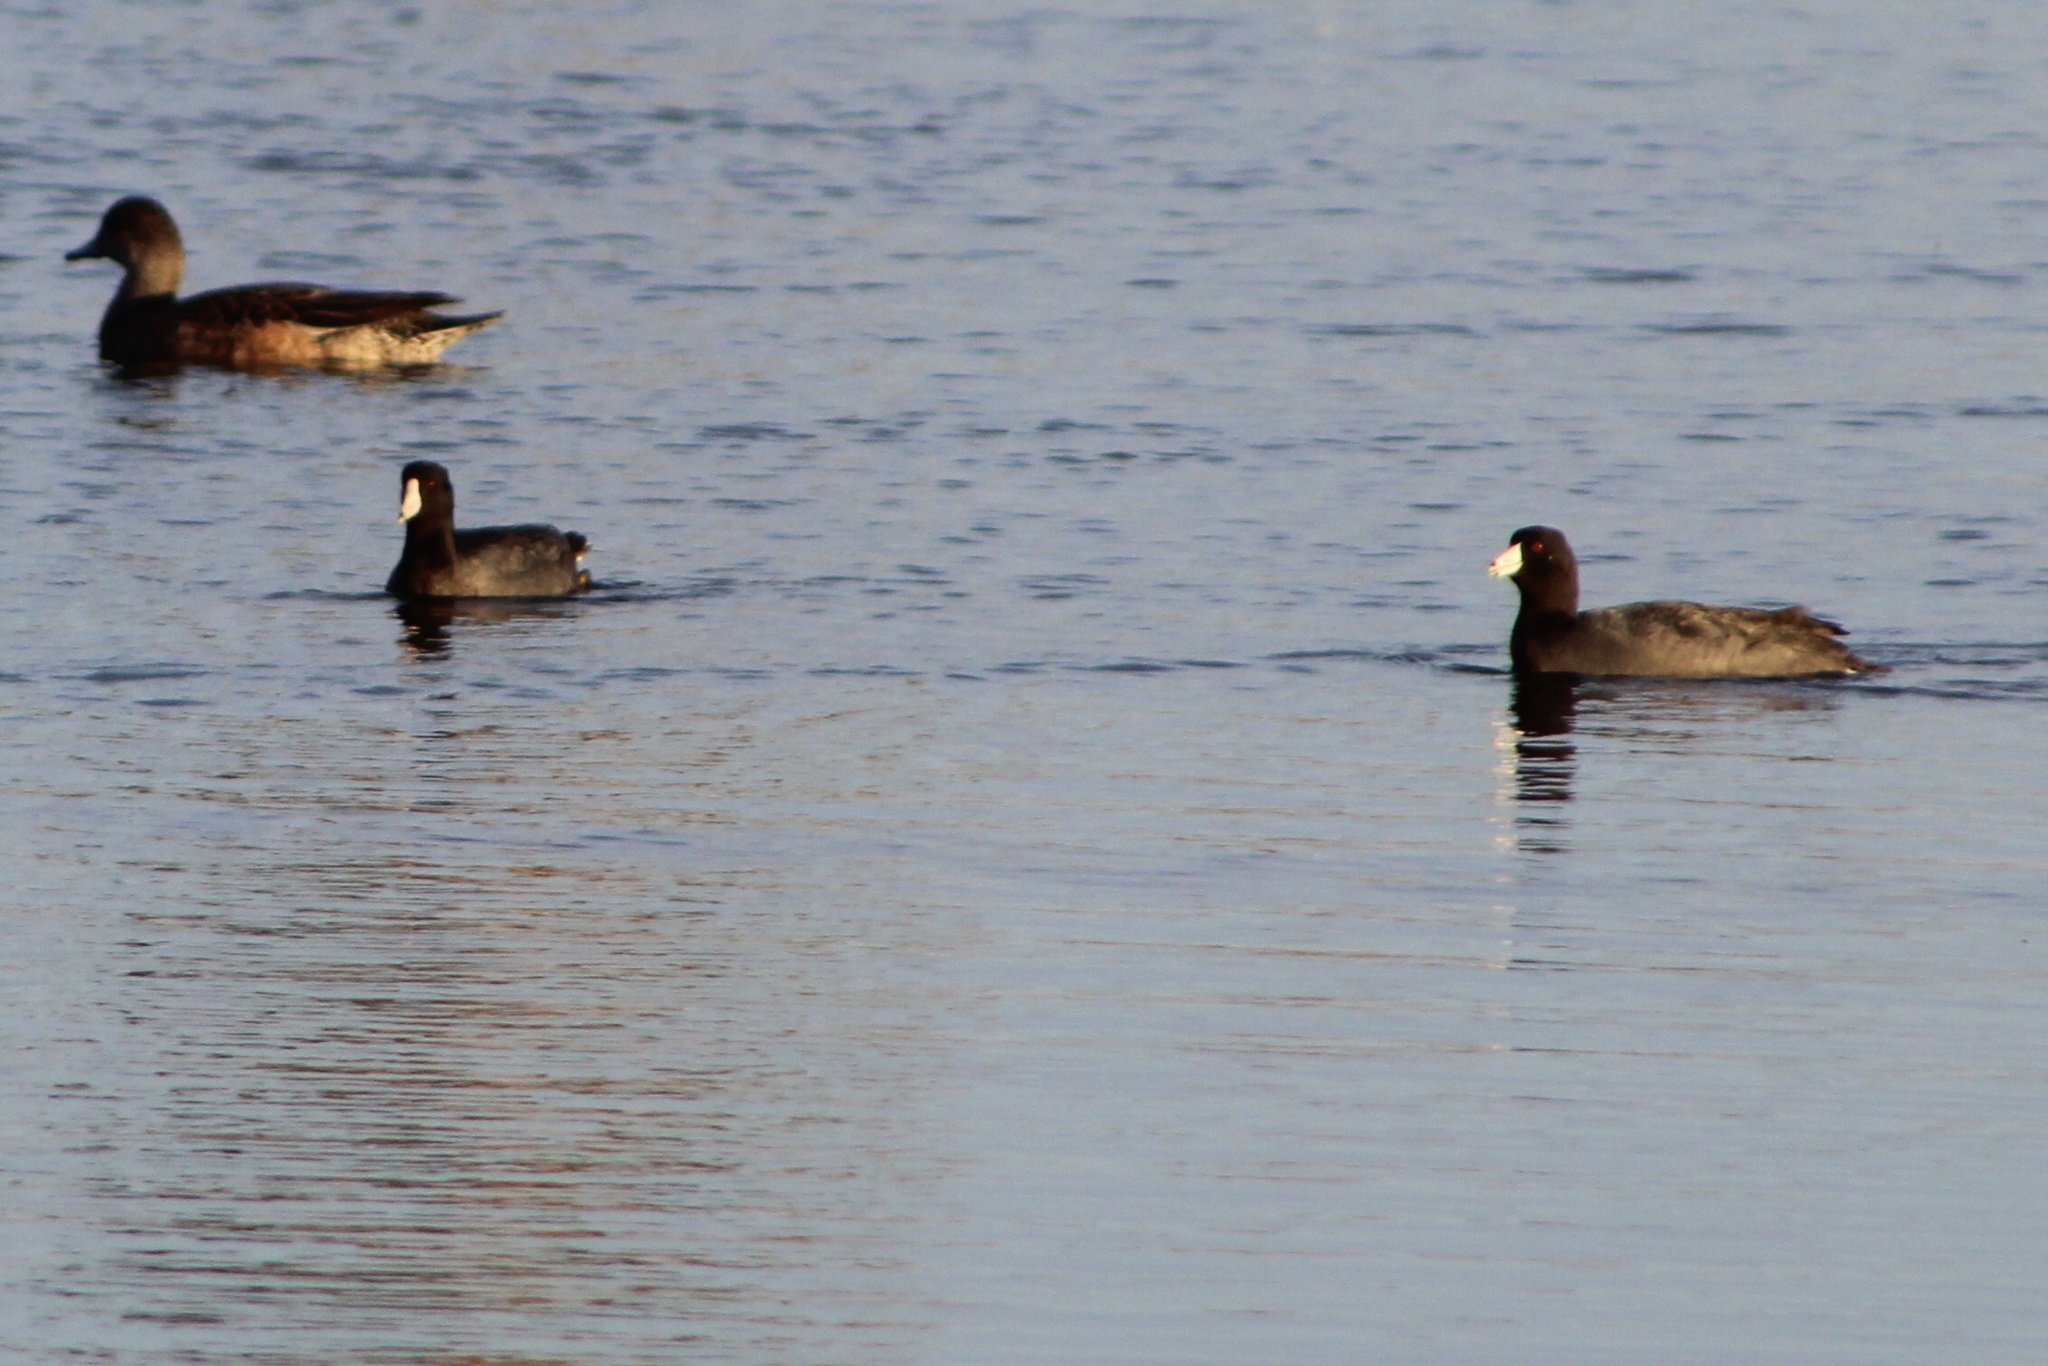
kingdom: Animalia
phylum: Chordata
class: Aves
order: Gruiformes
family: Rallidae
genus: Fulica
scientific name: Fulica americana
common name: American coot
